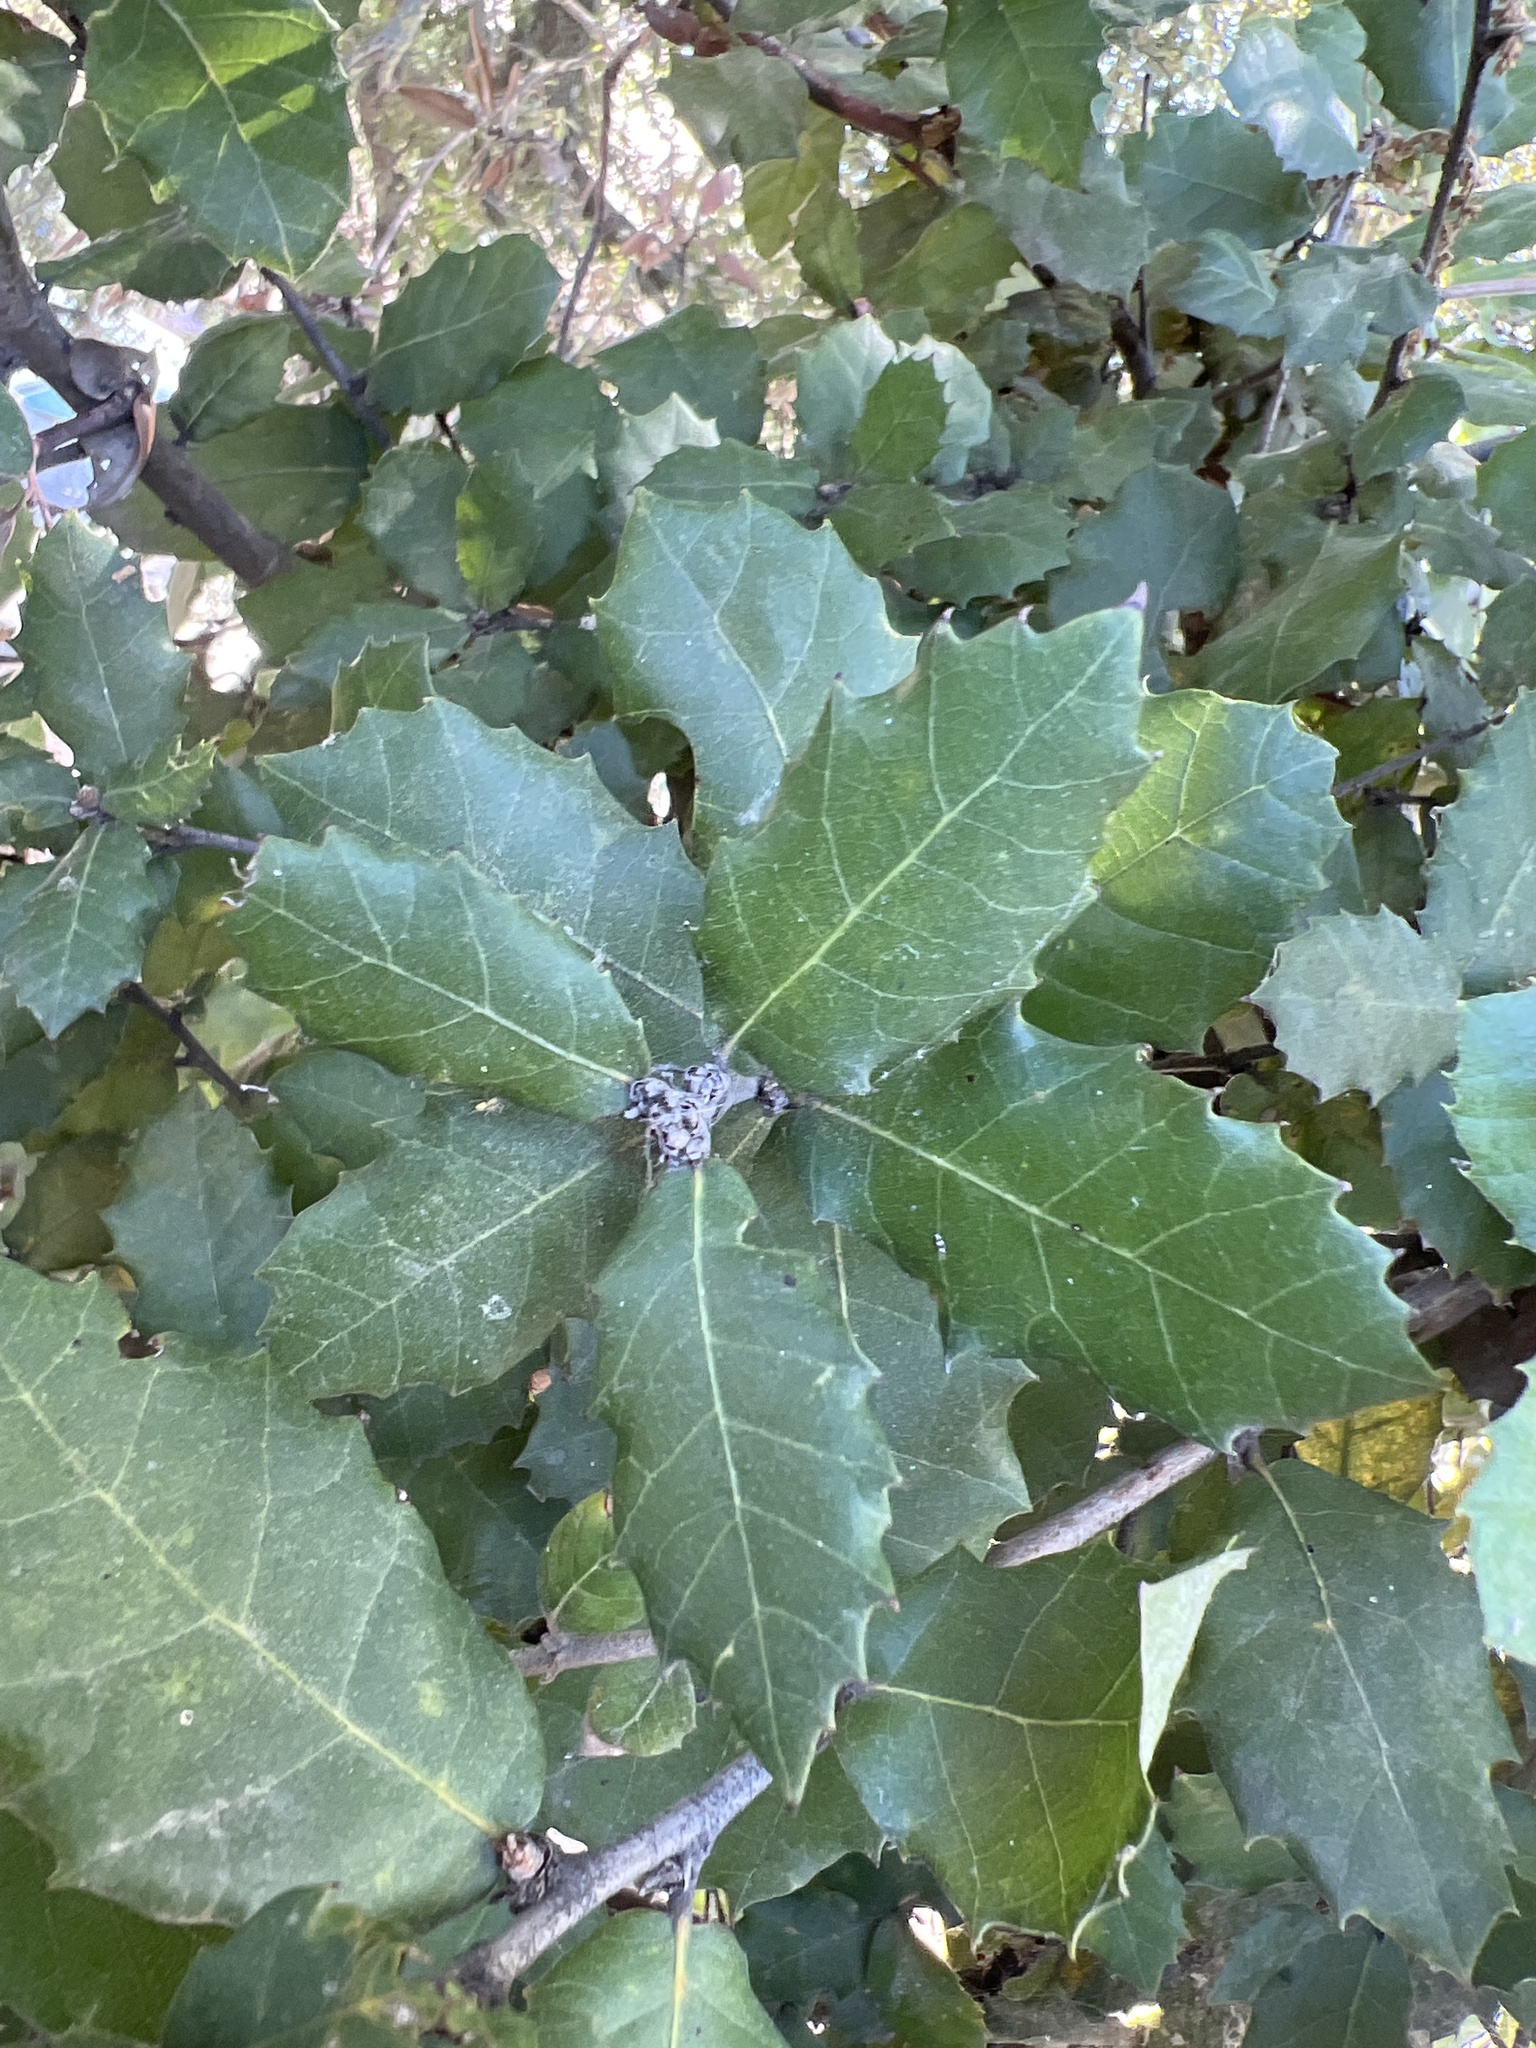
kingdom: Plantae
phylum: Tracheophyta
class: Magnoliopsida
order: Fagales
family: Fagaceae
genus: Quercus
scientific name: Quercus ilex
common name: Evergreen oak
